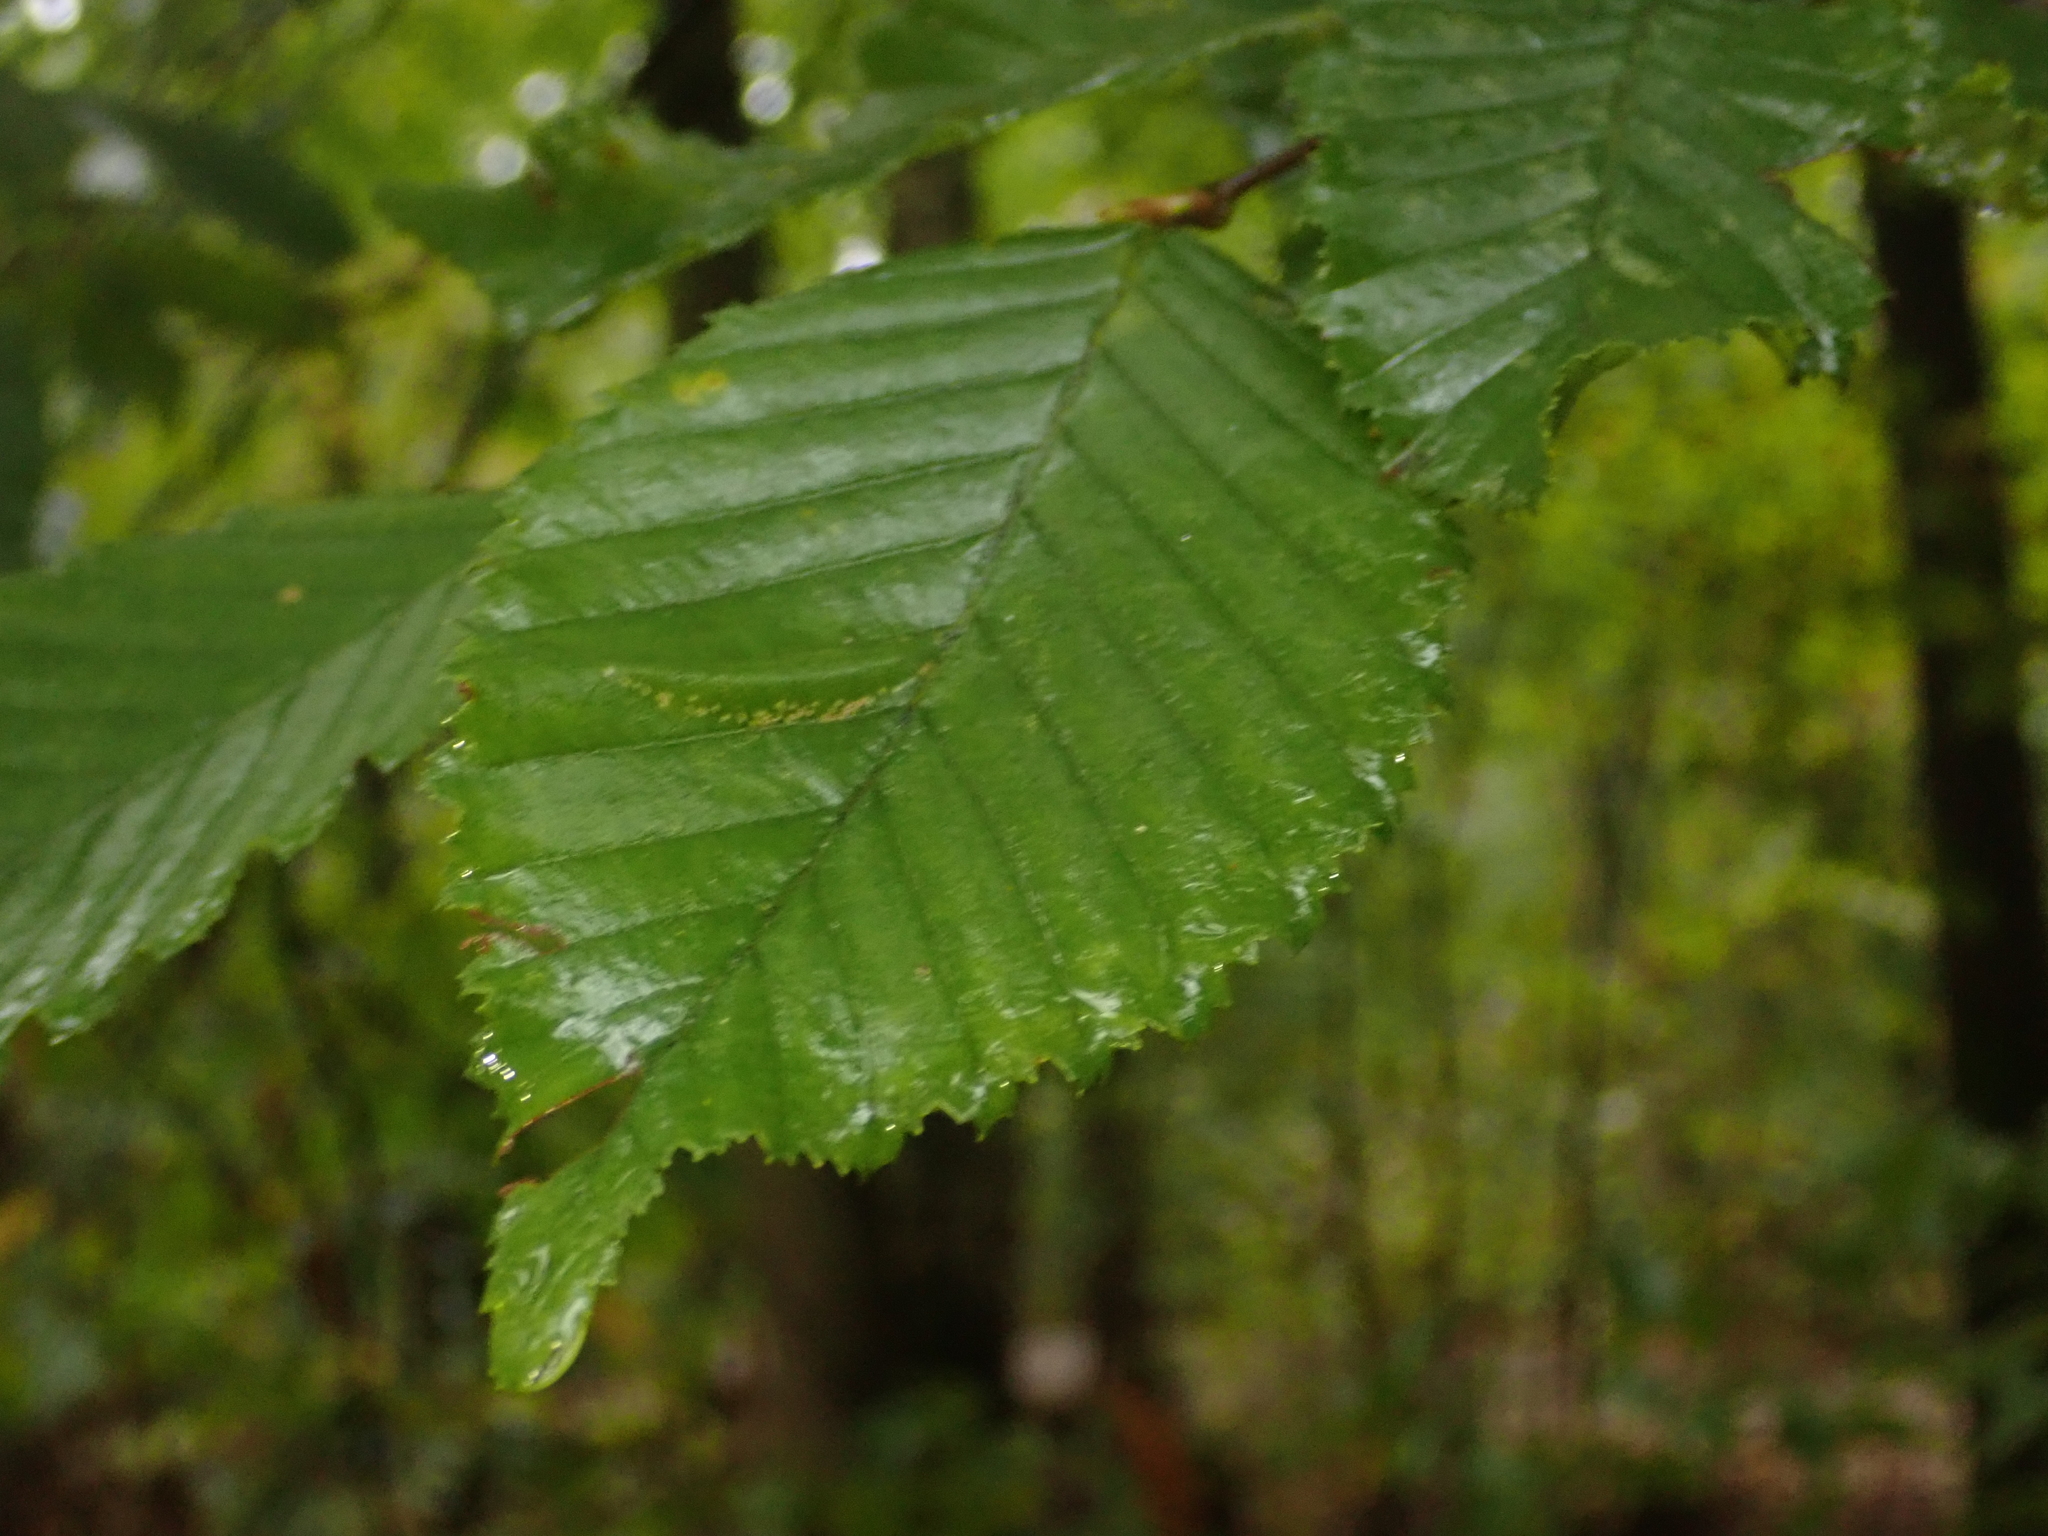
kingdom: Plantae
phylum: Tracheophyta
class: Magnoliopsida
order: Fagales
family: Betulaceae
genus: Carpinus
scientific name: Carpinus betulus
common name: Hornbeam
